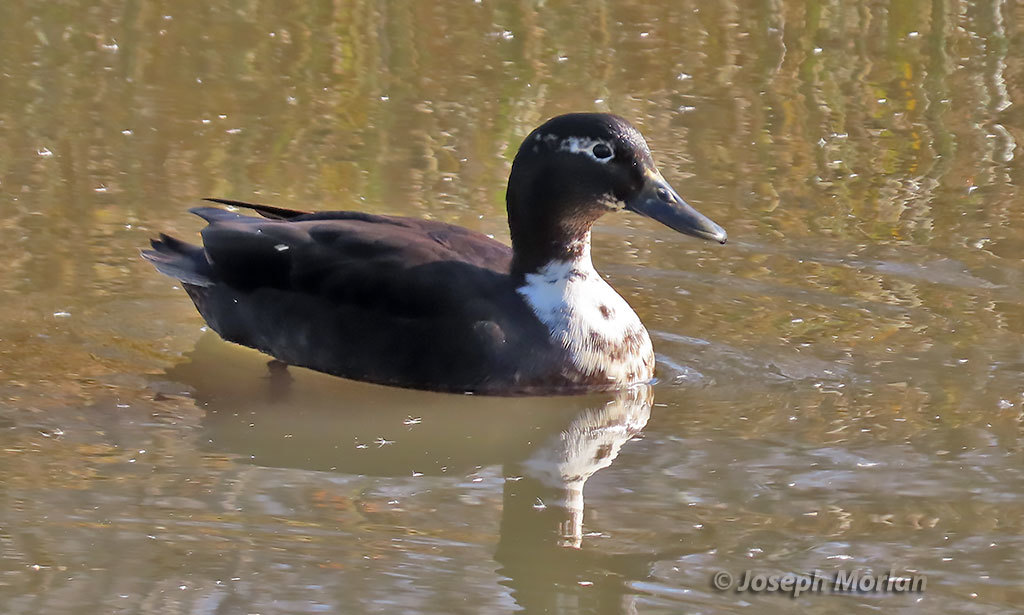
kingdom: Animalia
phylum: Chordata
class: Aves
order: Anseriformes
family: Anatidae
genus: Anas
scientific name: Anas platyrhynchos
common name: Mallard
